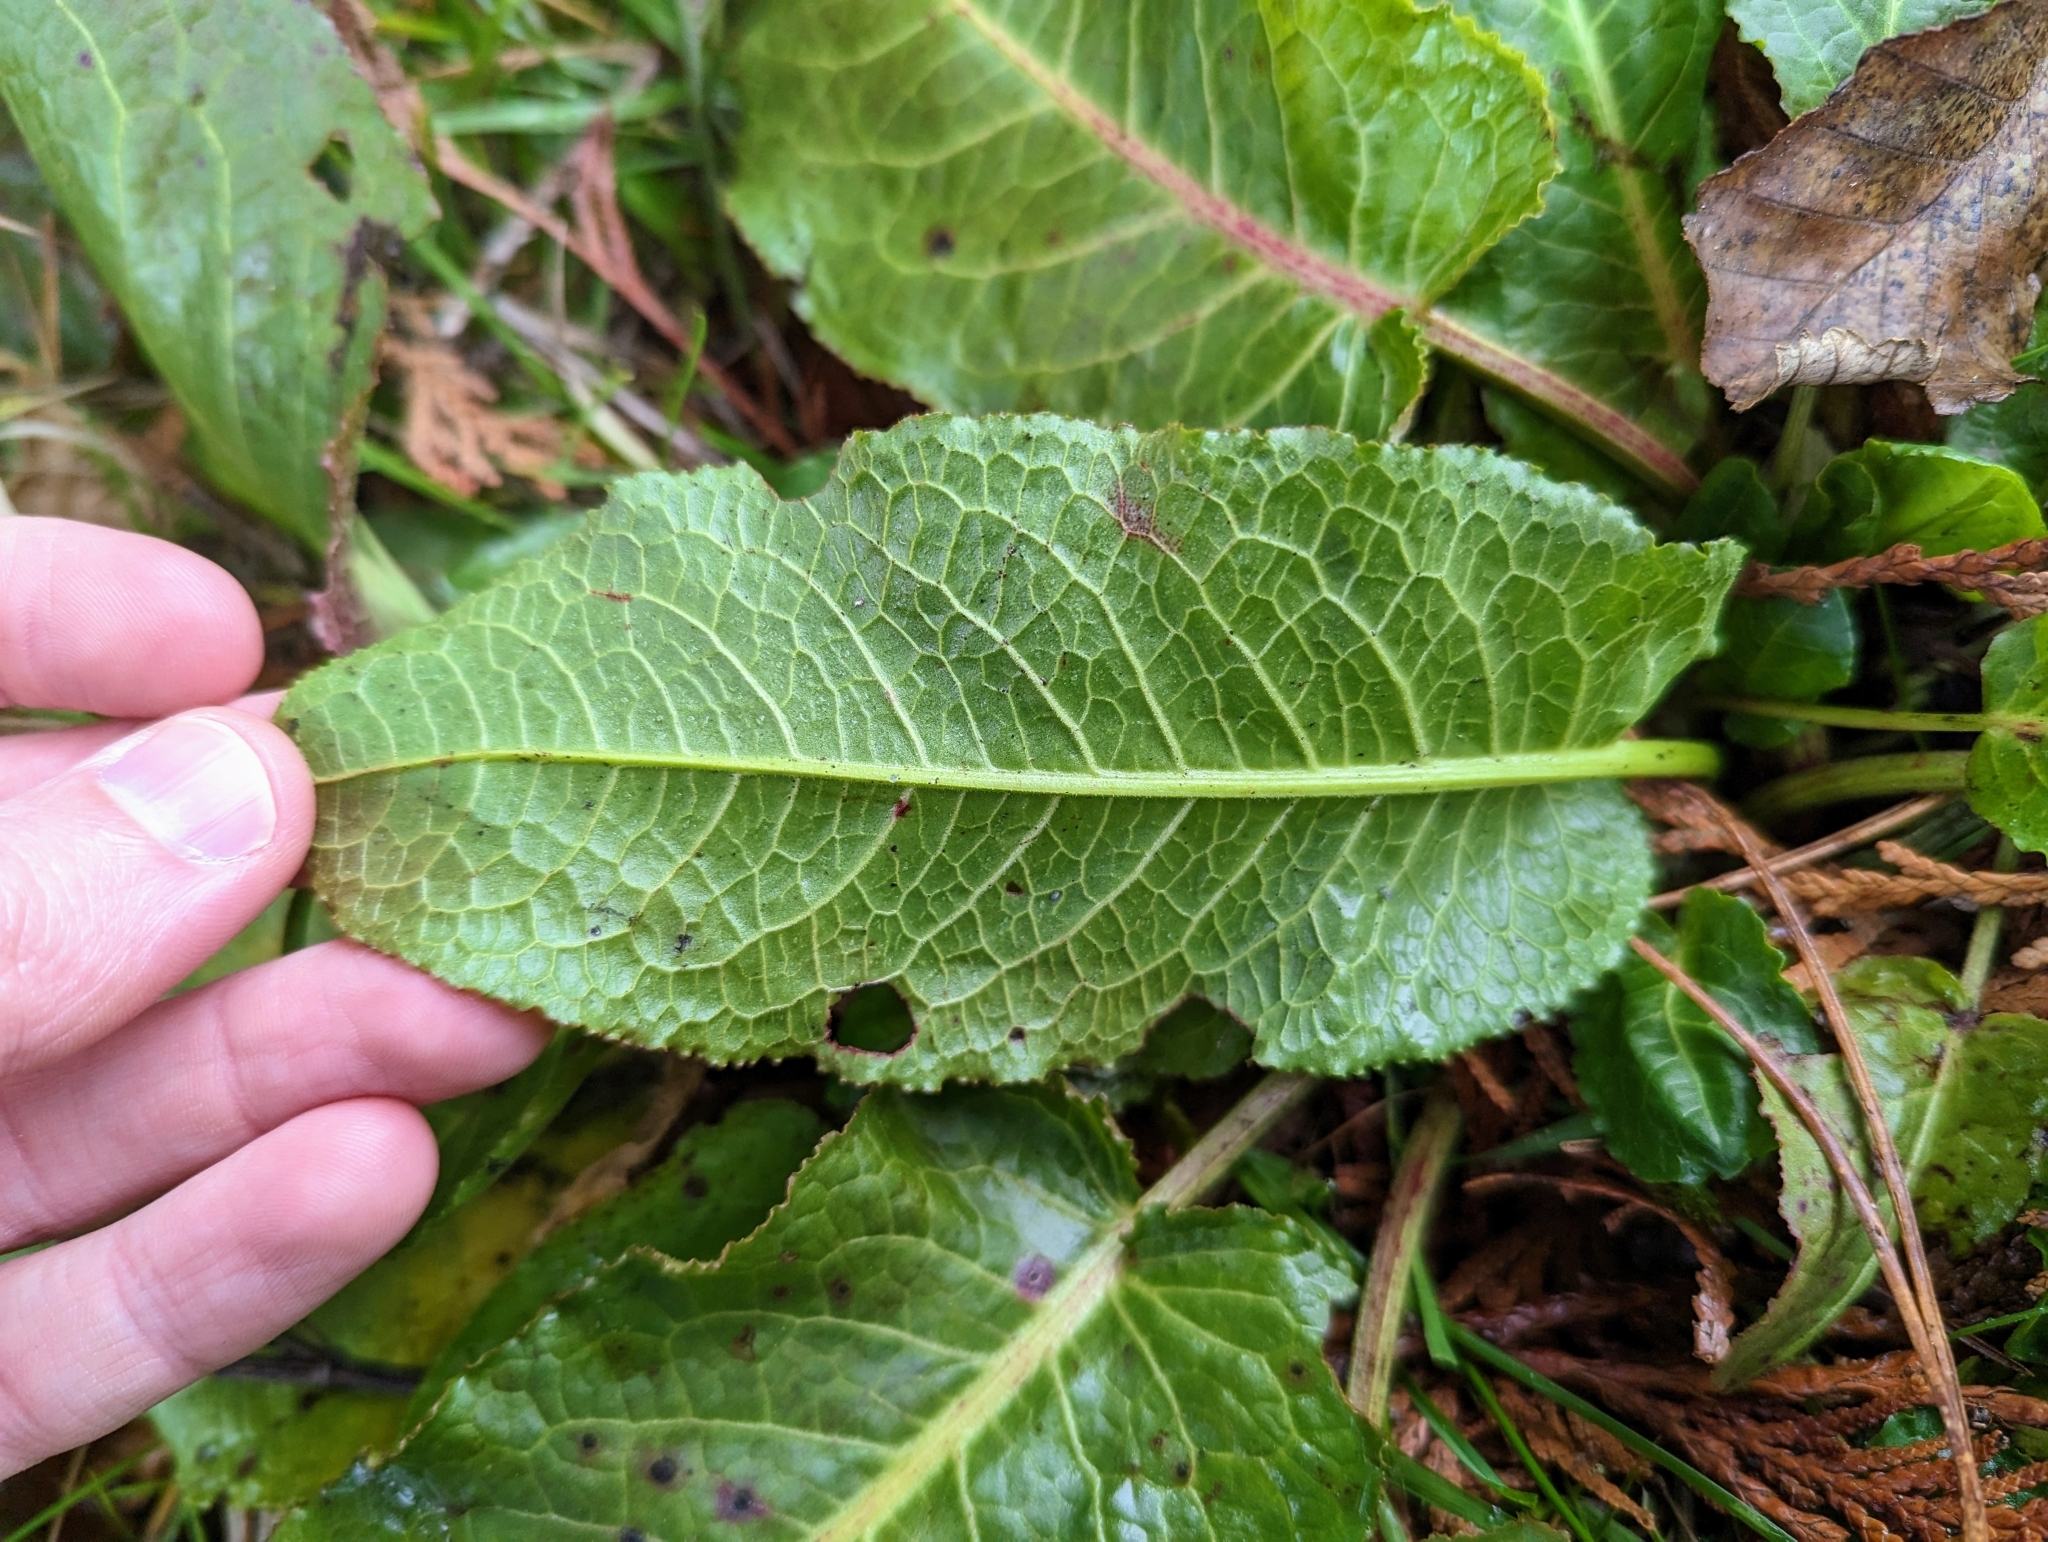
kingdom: Plantae
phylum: Tracheophyta
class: Magnoliopsida
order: Caryophyllales
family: Polygonaceae
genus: Rumex
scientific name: Rumex obtusifolius
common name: Bitter dock
